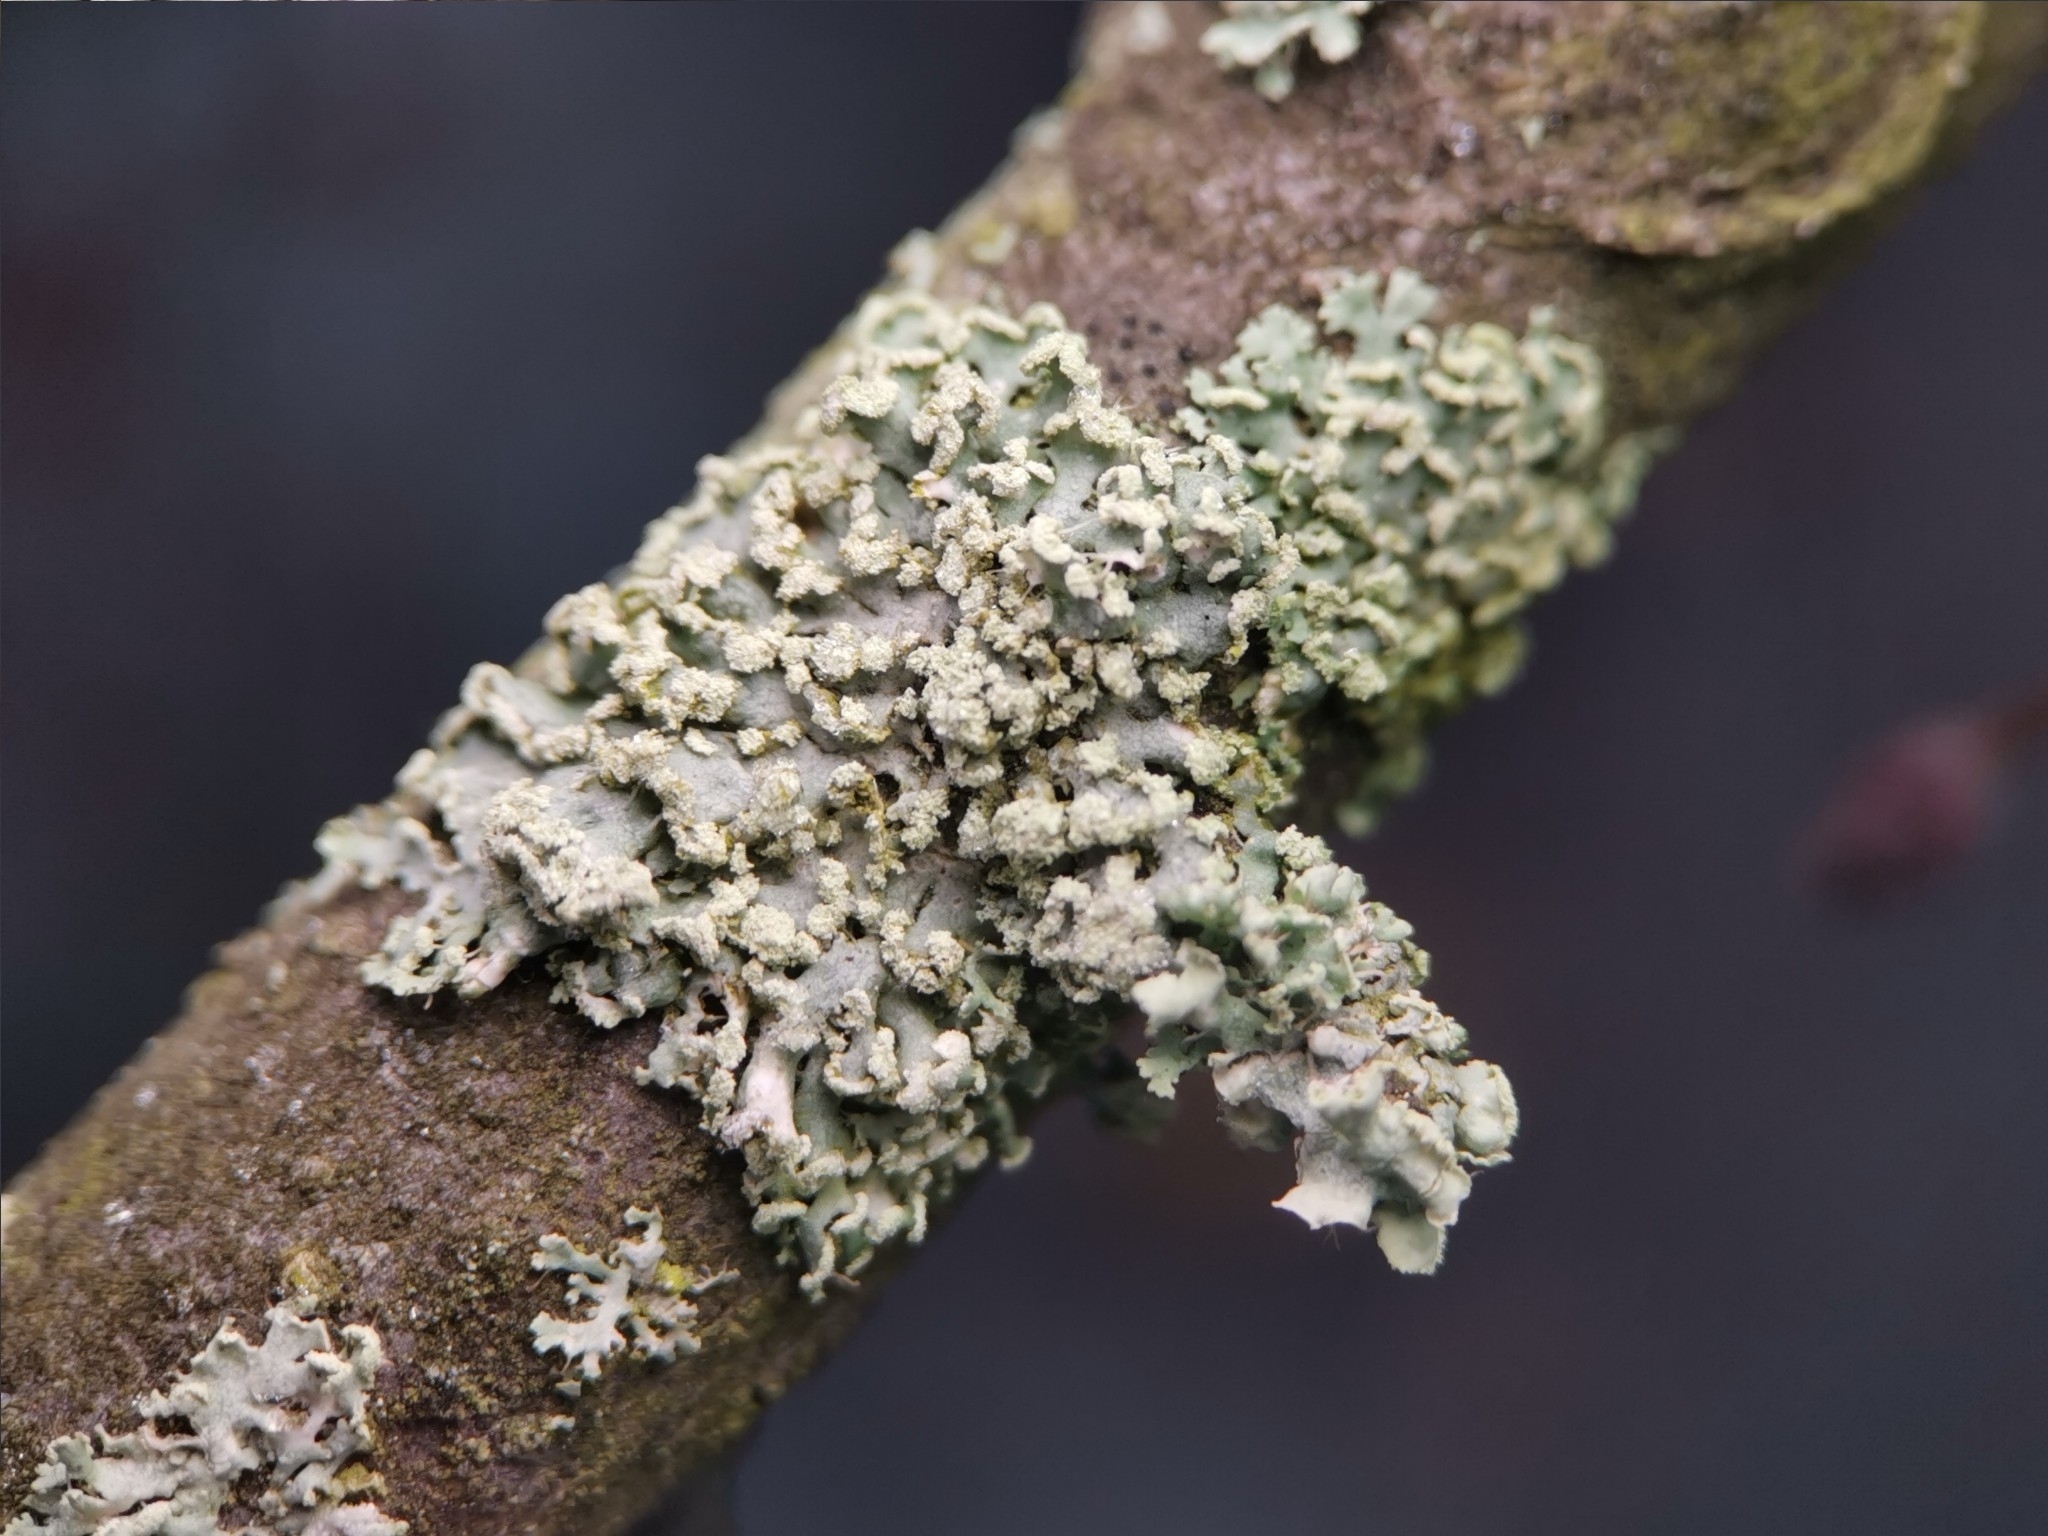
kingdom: Fungi
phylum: Ascomycota
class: Lecanoromycetes
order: Caliciales
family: Physciaceae
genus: Physcia
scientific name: Physcia tenella
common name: Fringed rosette lichen
